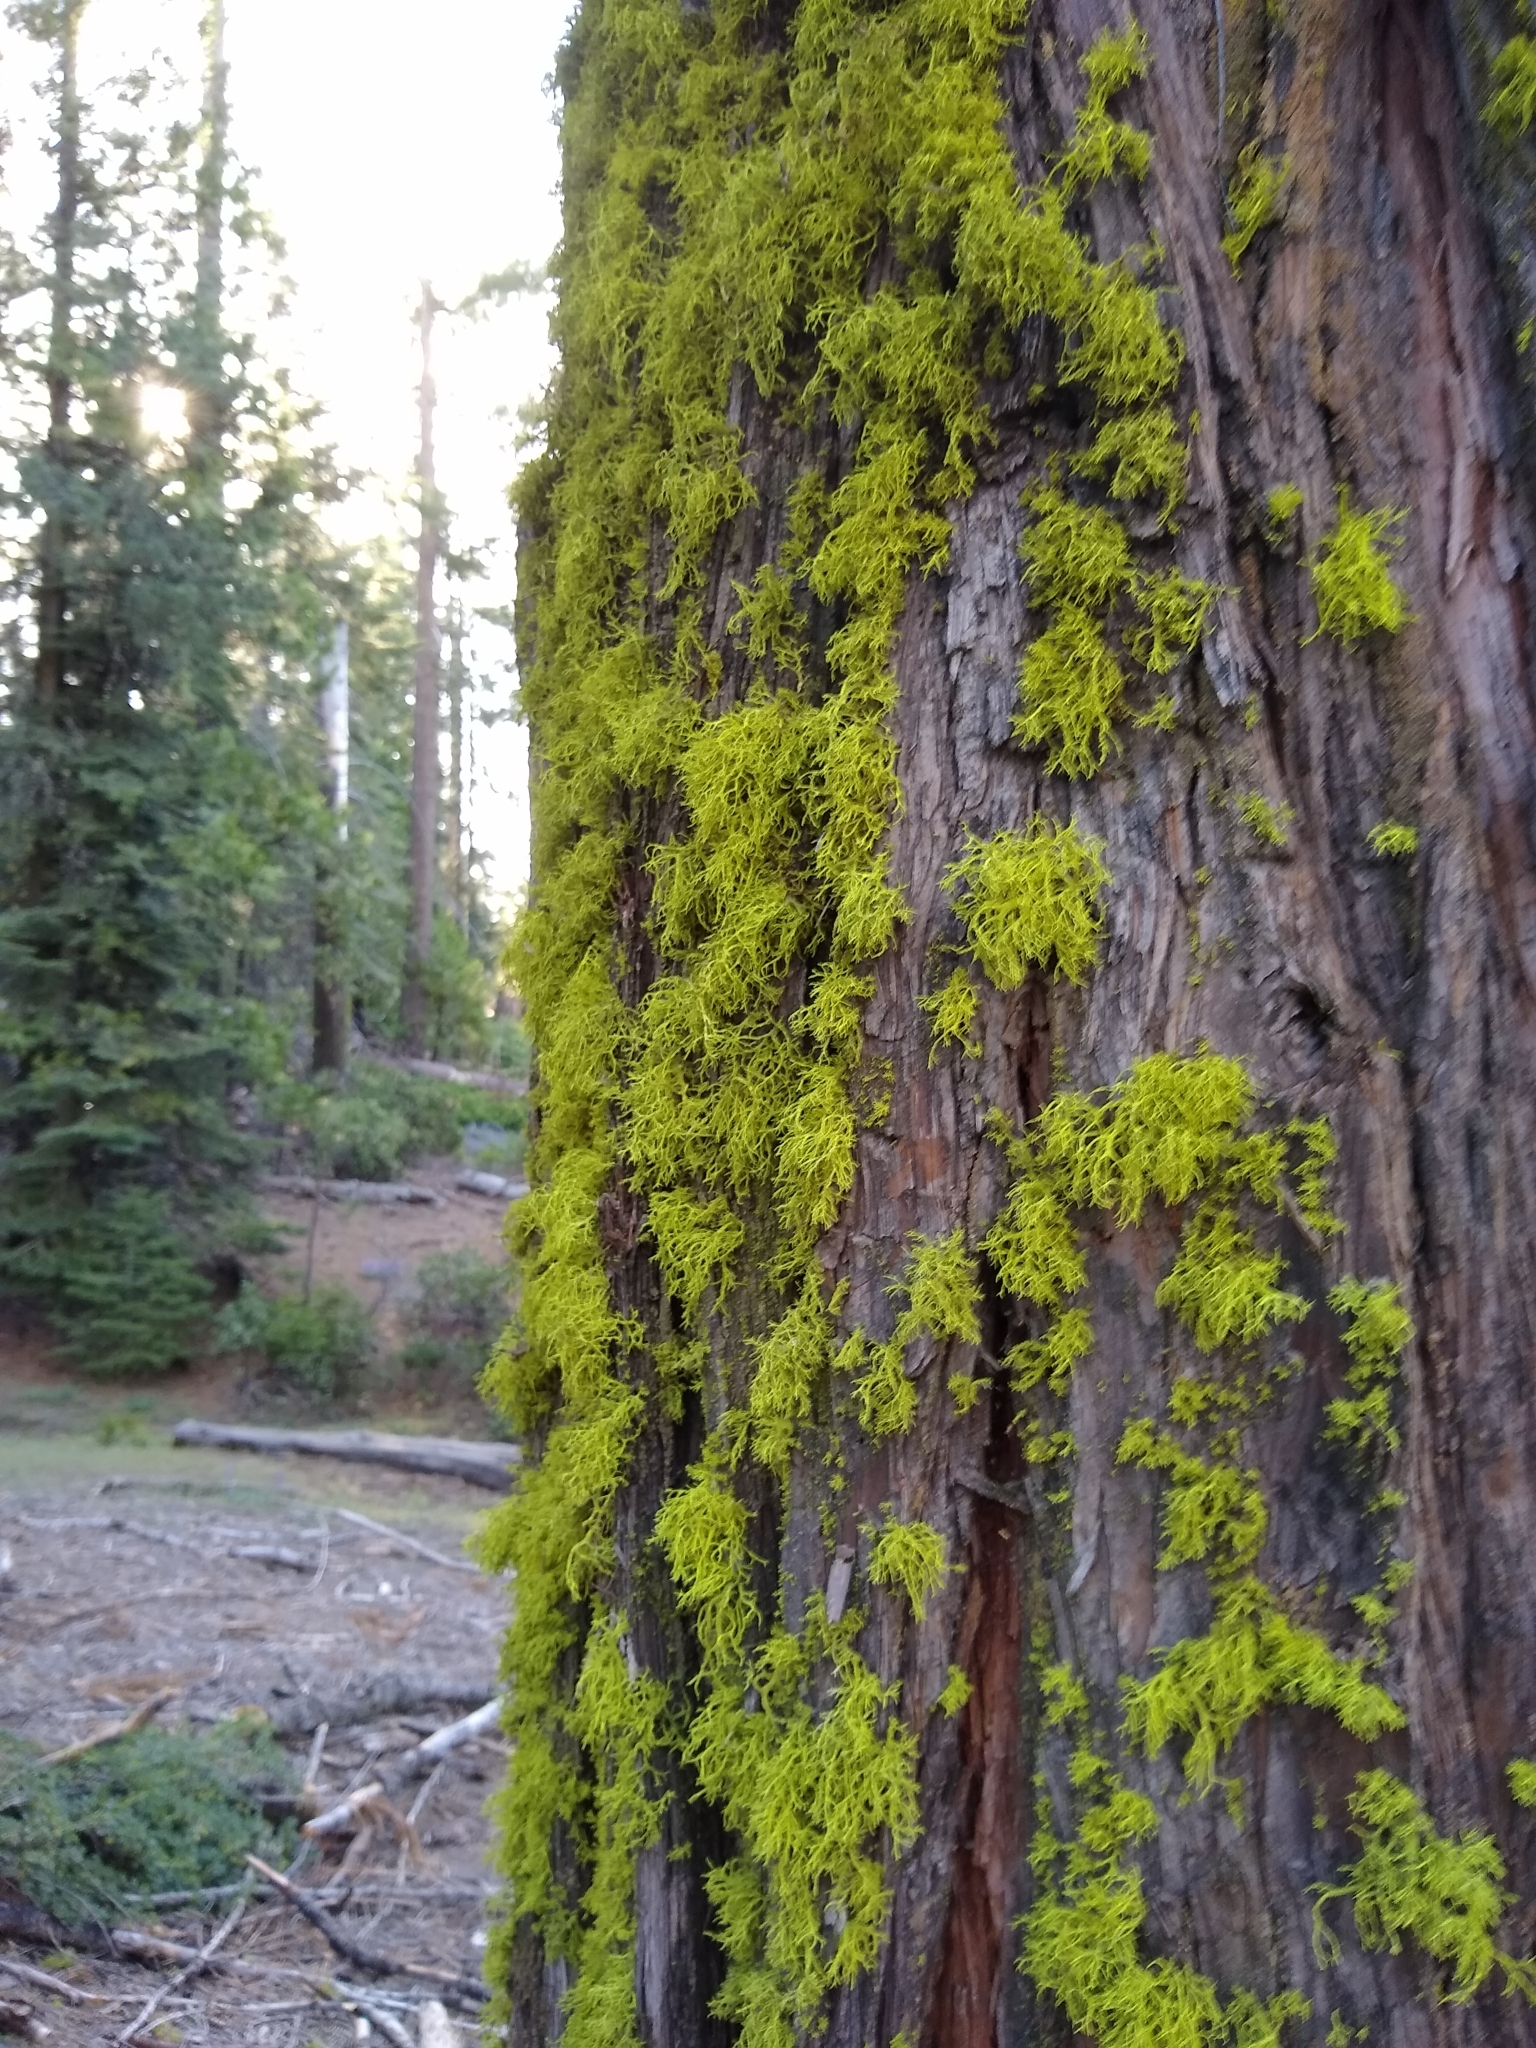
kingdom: Fungi
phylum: Ascomycota
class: Lecanoromycetes
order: Lecanorales
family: Parmeliaceae
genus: Letharia
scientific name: Letharia vulpina
